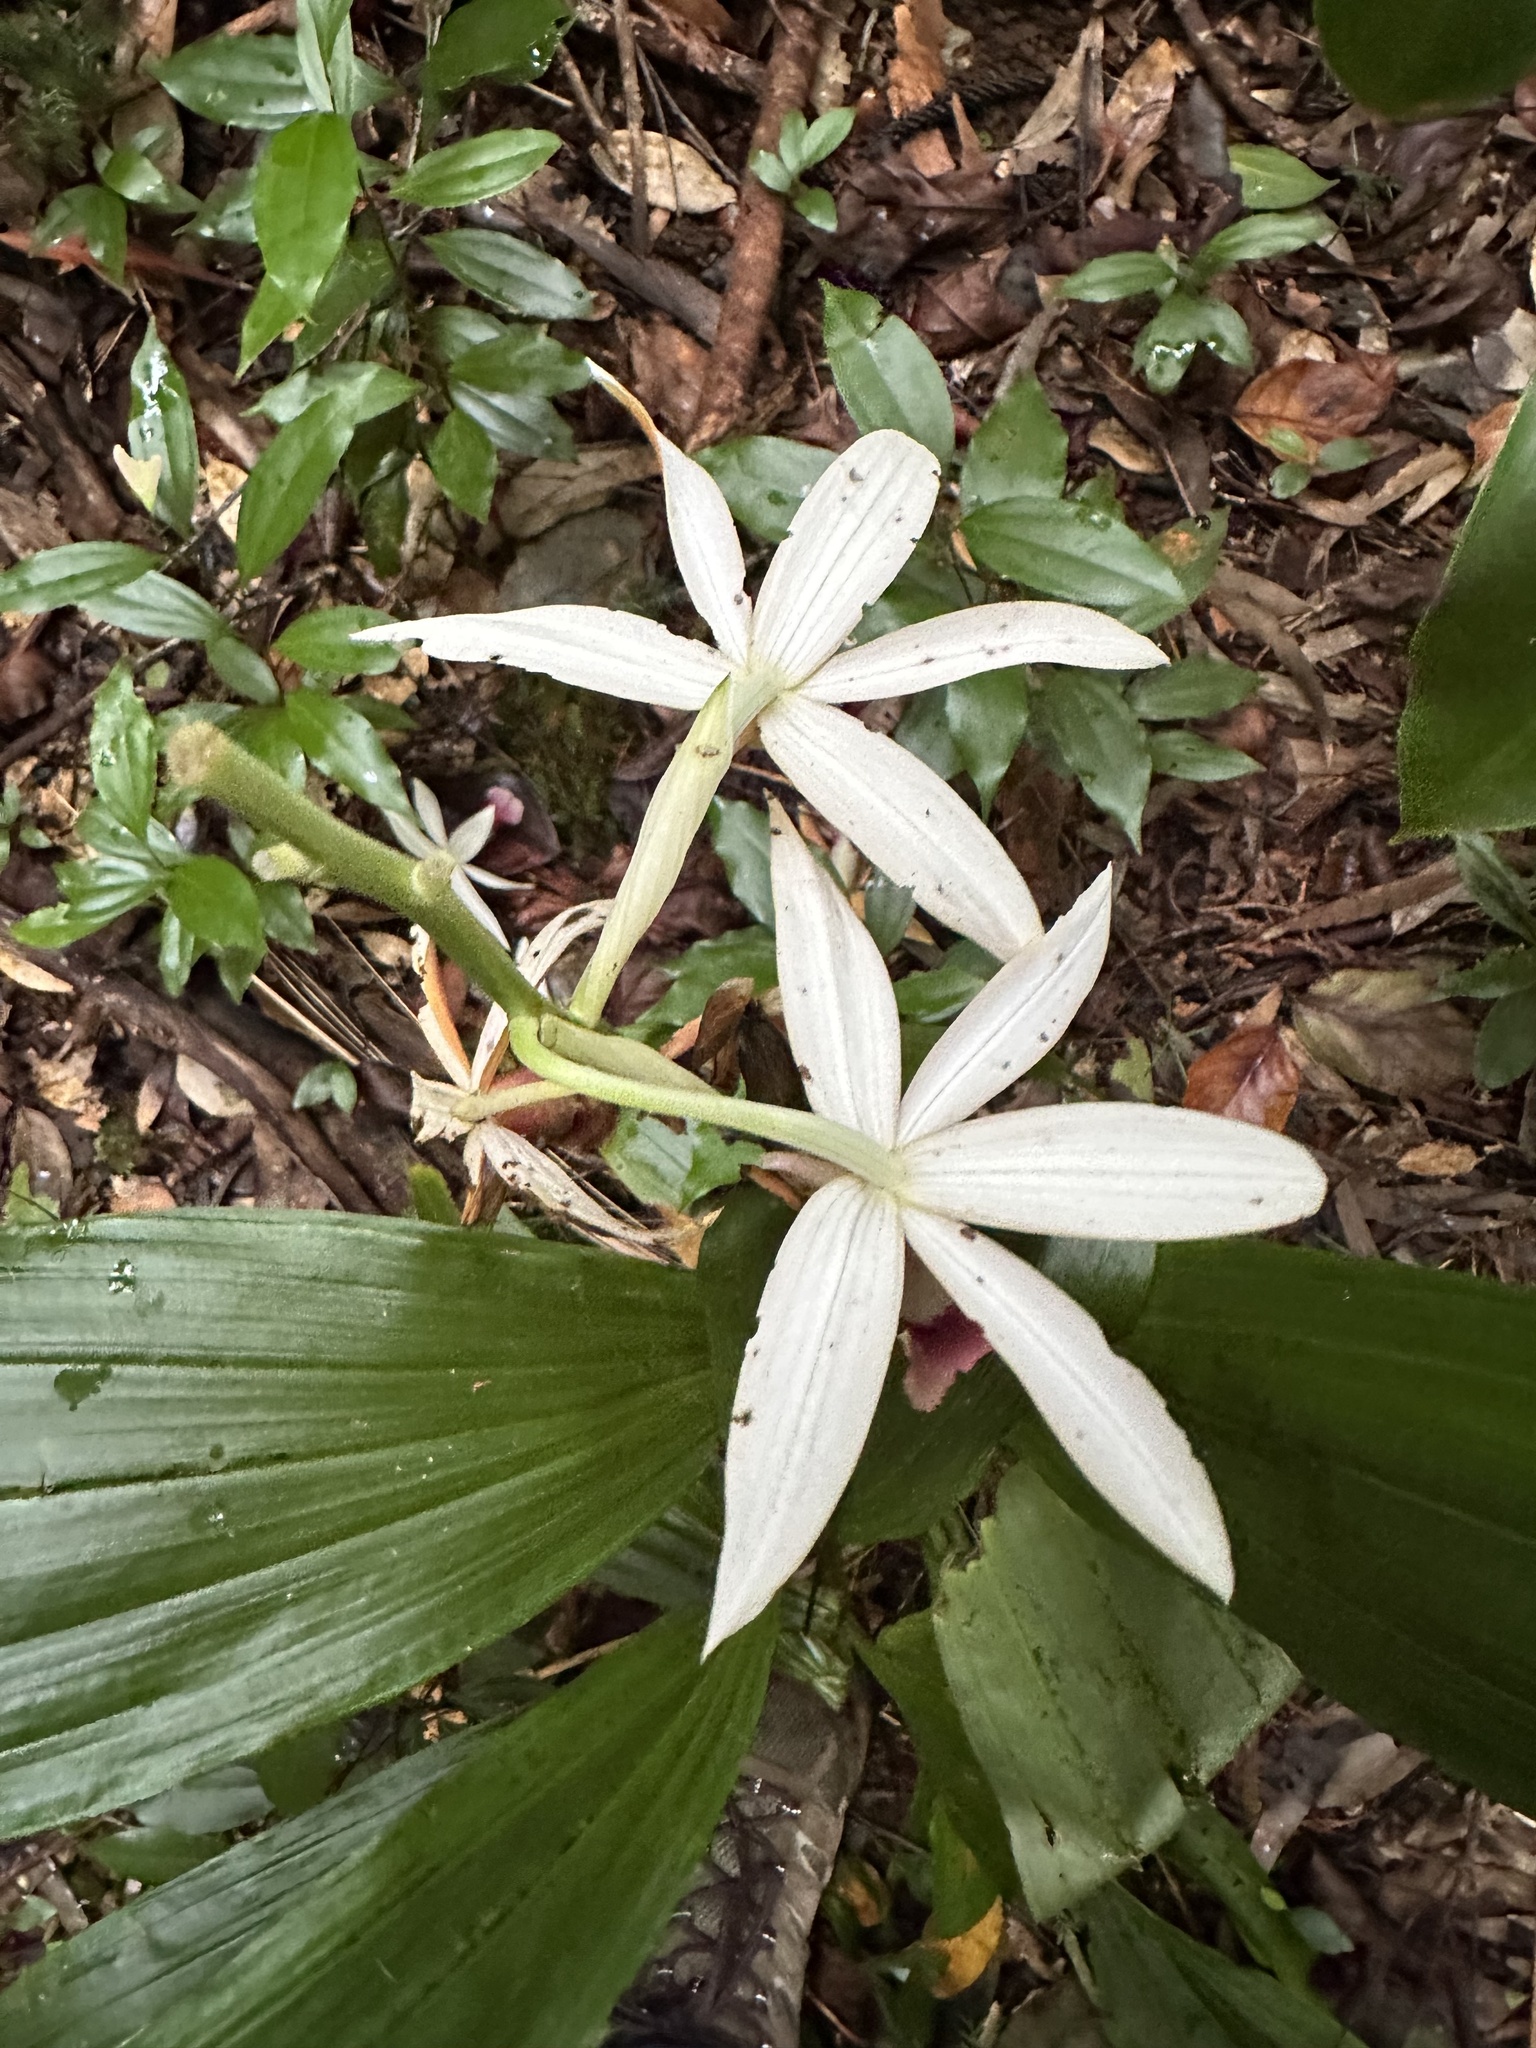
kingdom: Plantae
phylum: Tracheophyta
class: Liliopsida
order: Asparagales
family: Orchidaceae
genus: Calanthe
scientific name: Calanthe tankervilleae
